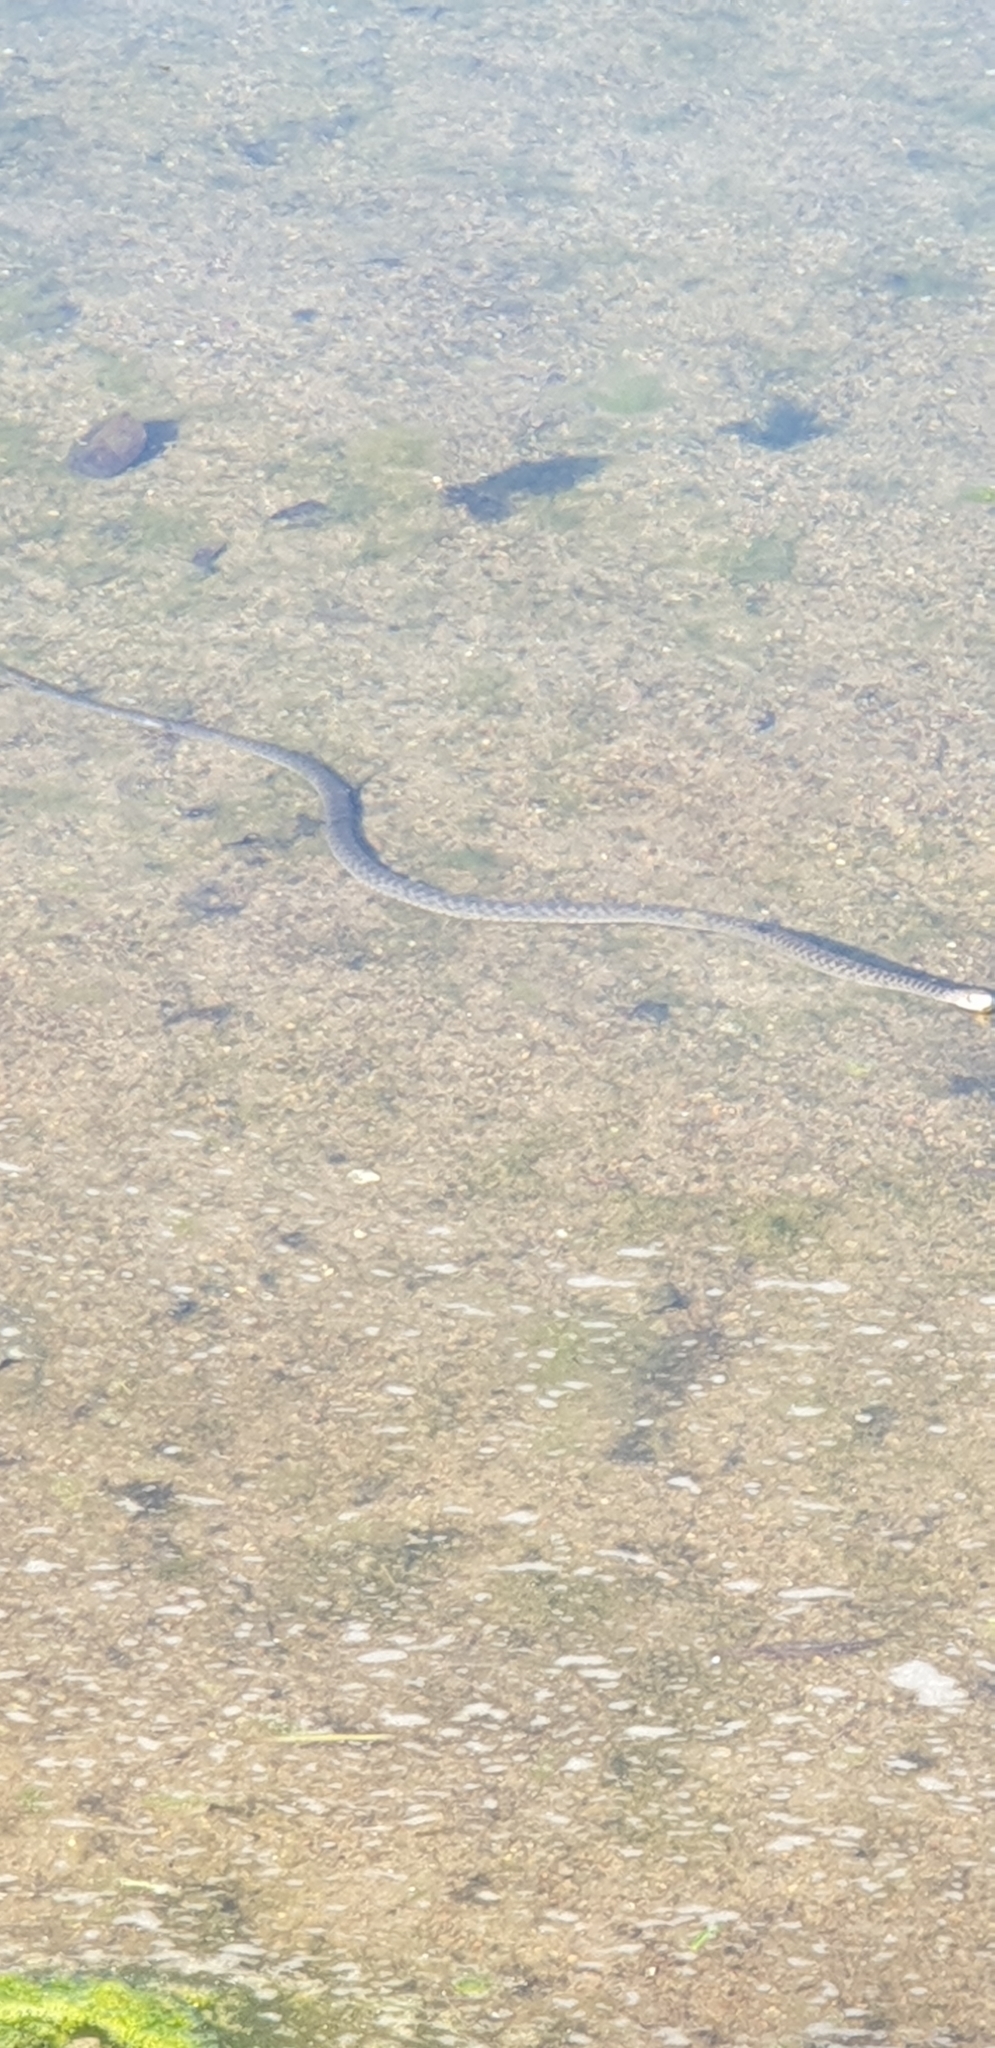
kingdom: Animalia
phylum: Chordata
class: Squamata
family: Colubridae
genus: Tropidonophis
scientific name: Tropidonophis mairii
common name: Common keelback
